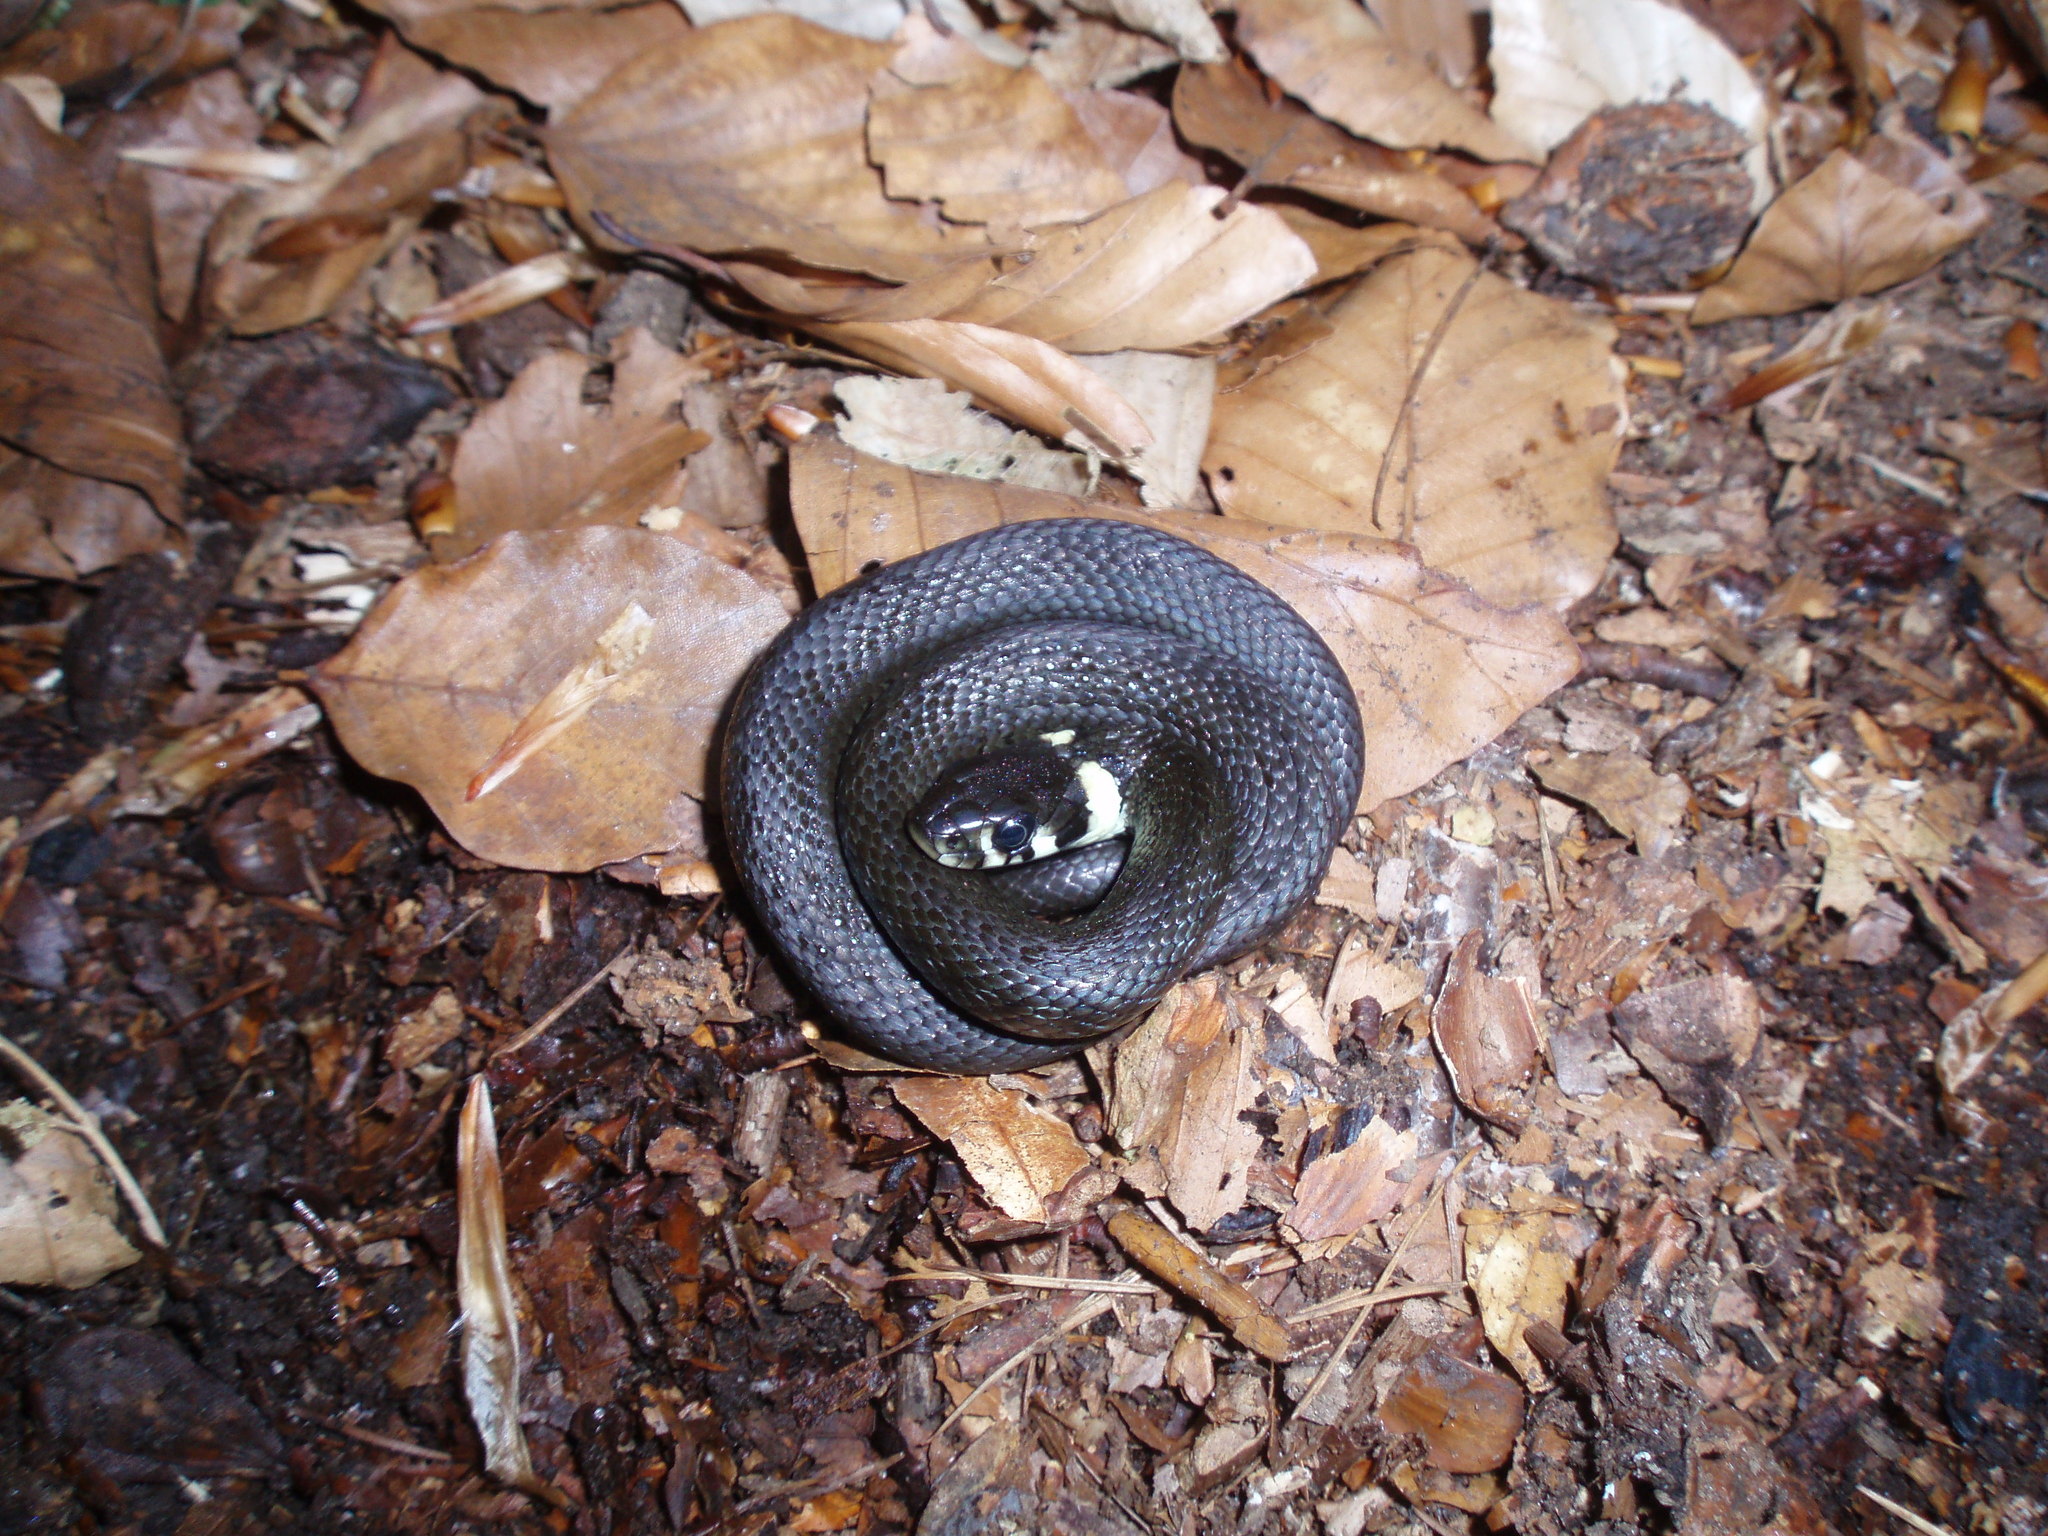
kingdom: Animalia
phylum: Chordata
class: Squamata
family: Colubridae
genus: Natrix
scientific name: Natrix natrix
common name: Grass snake
